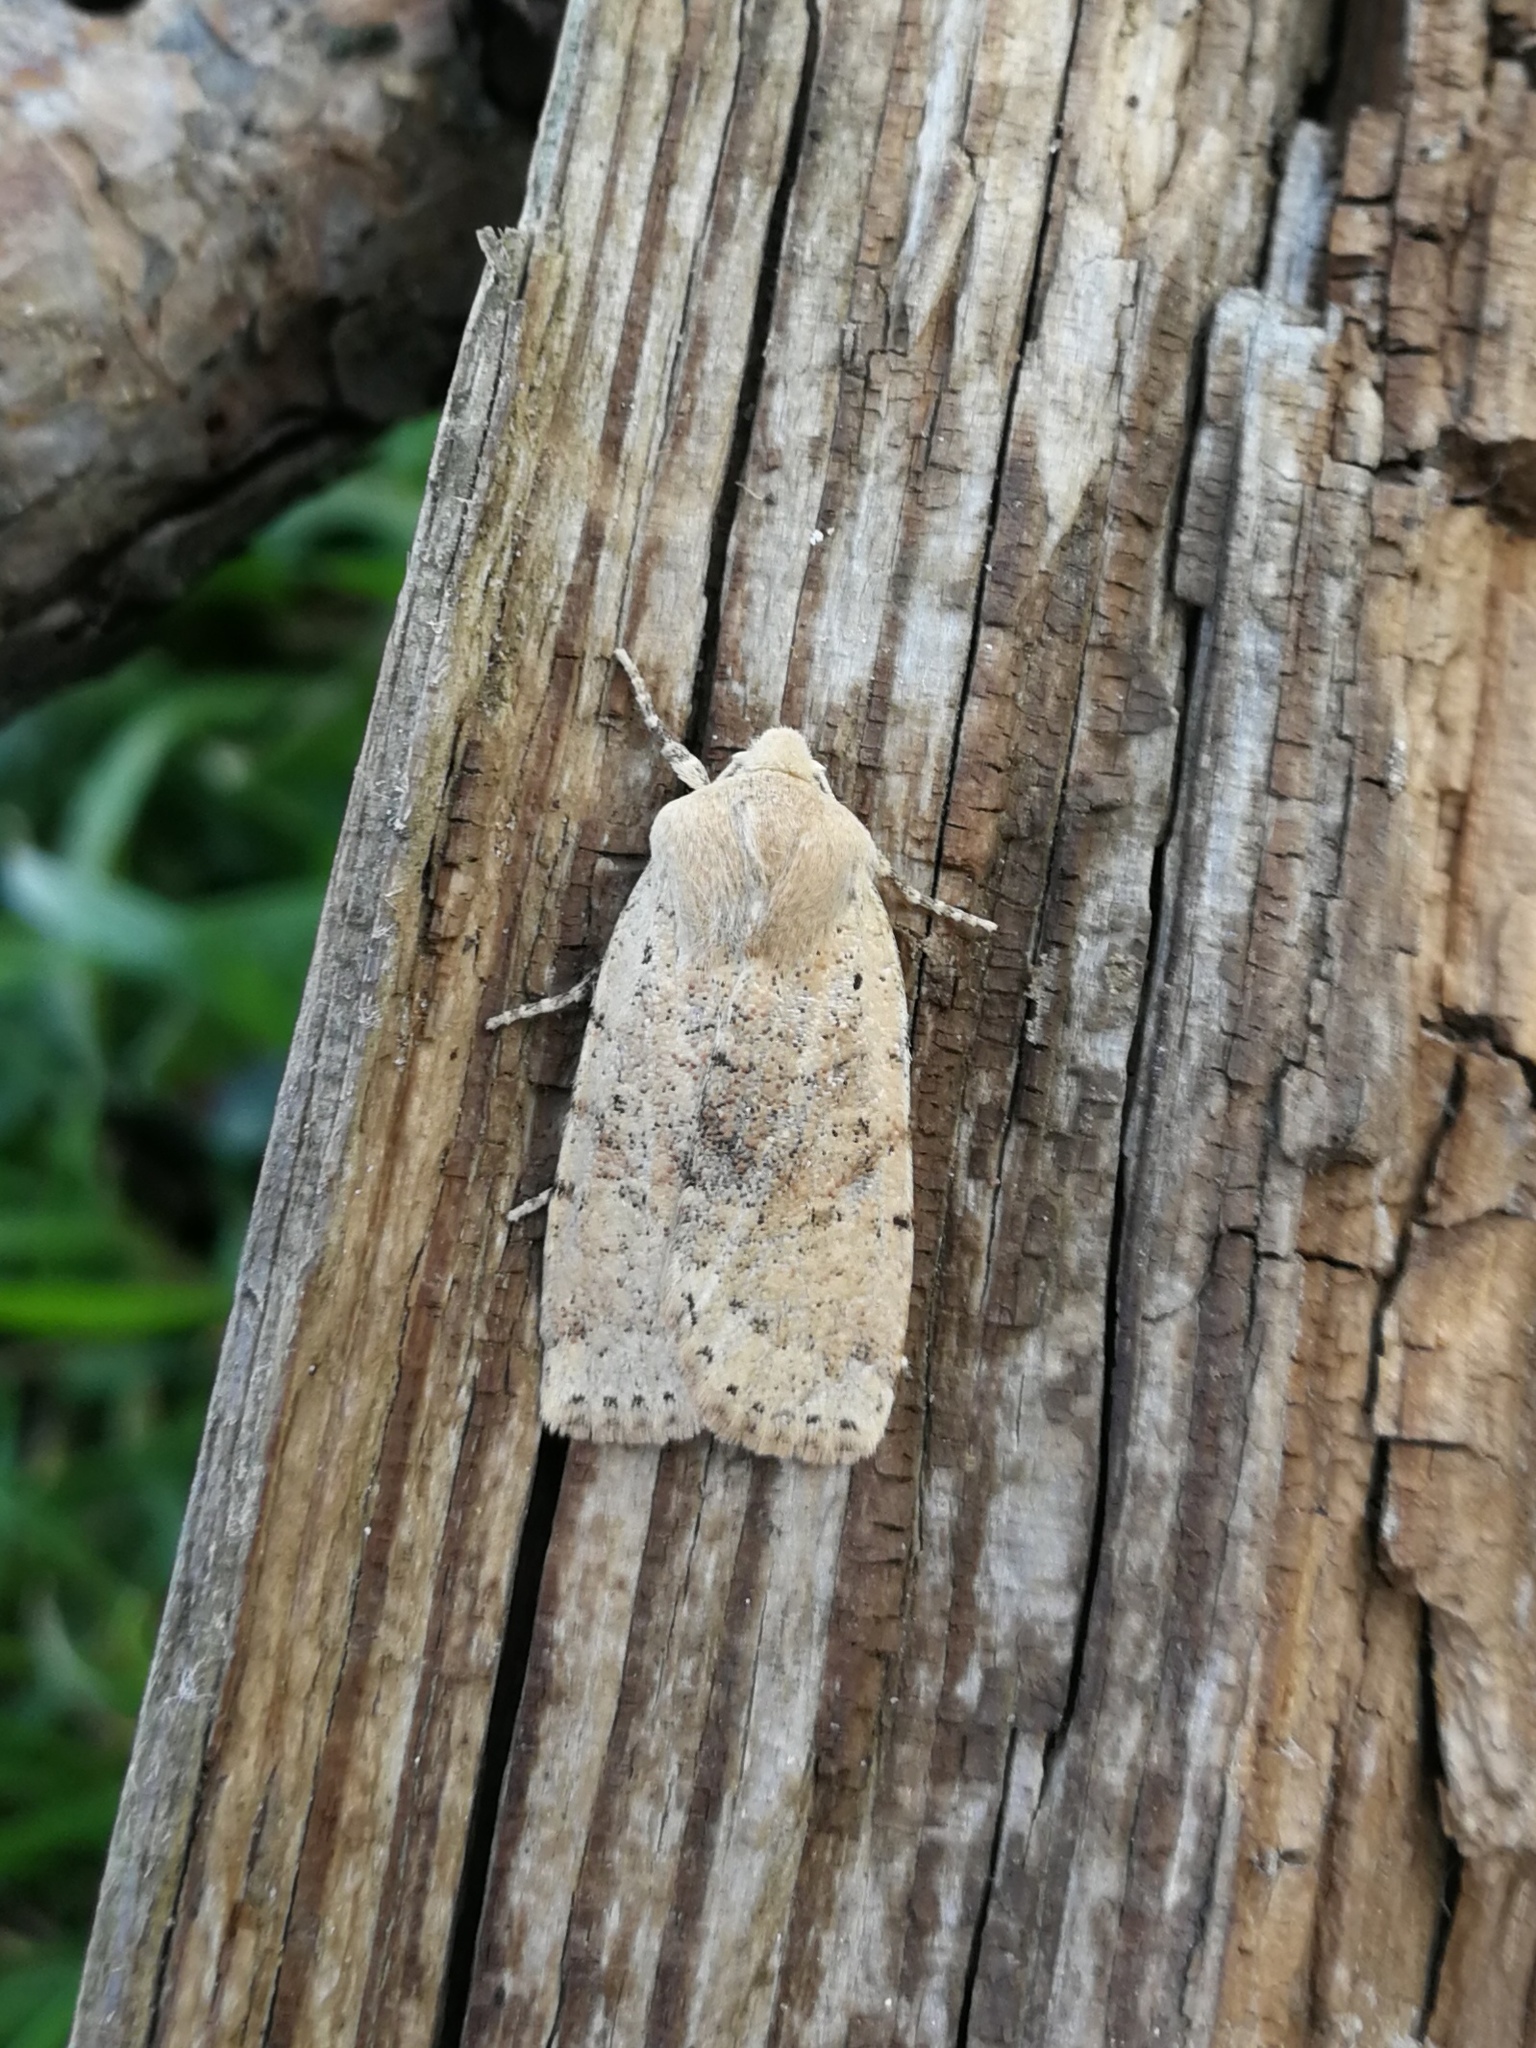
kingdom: Animalia
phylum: Arthropoda
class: Insecta
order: Lepidoptera
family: Noctuidae
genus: Conistra
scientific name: Conistra daubei
